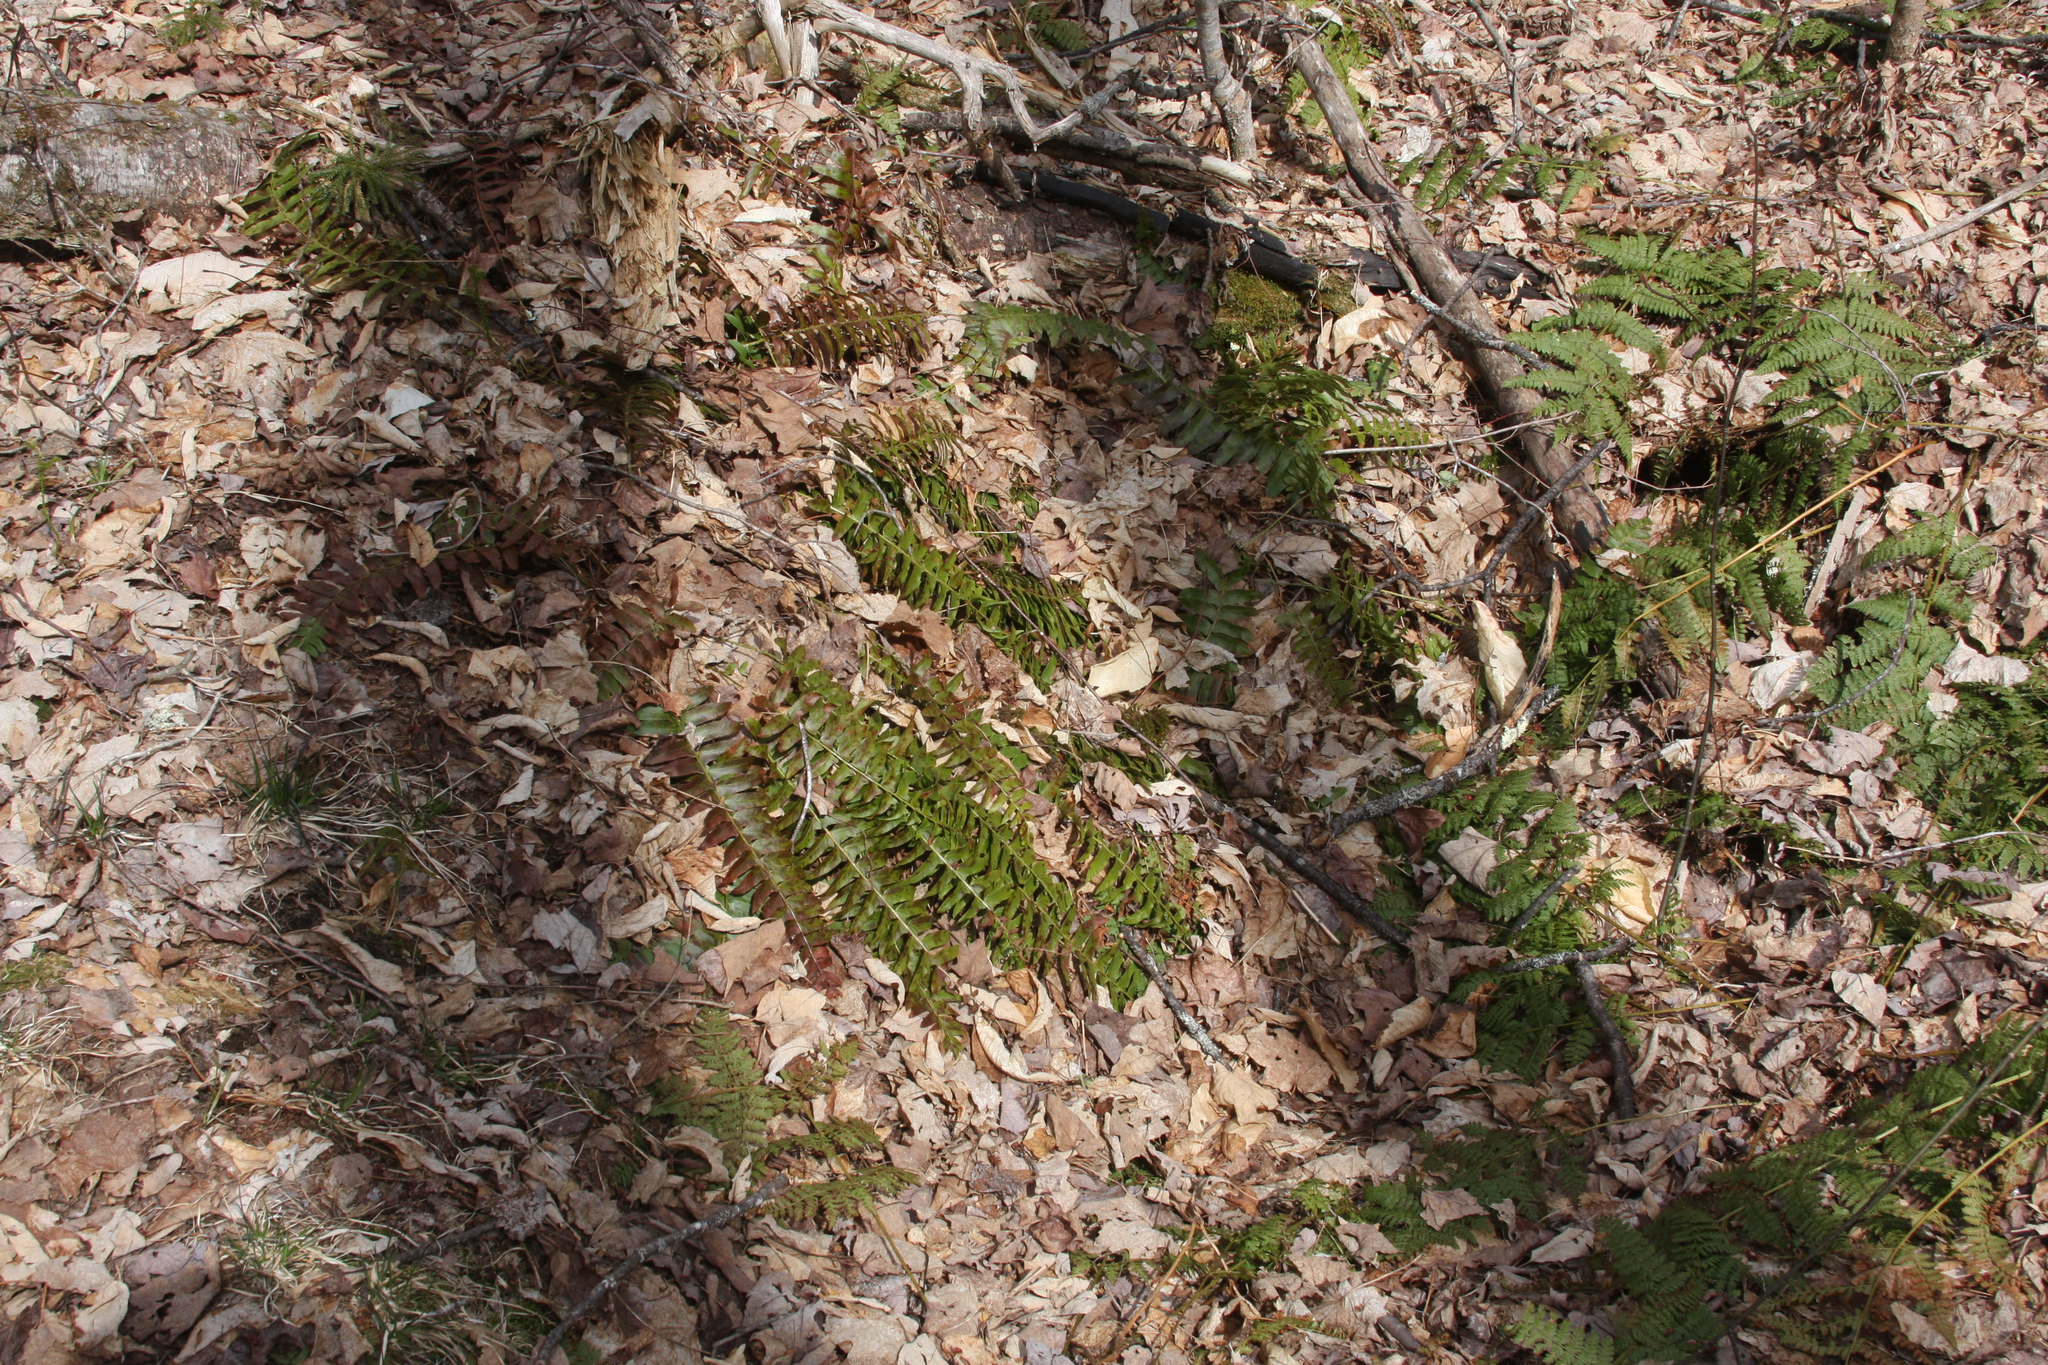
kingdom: Plantae
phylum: Tracheophyta
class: Polypodiopsida
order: Polypodiales
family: Dryopteridaceae
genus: Polystichum
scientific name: Polystichum acrostichoides
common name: Christmas fern
